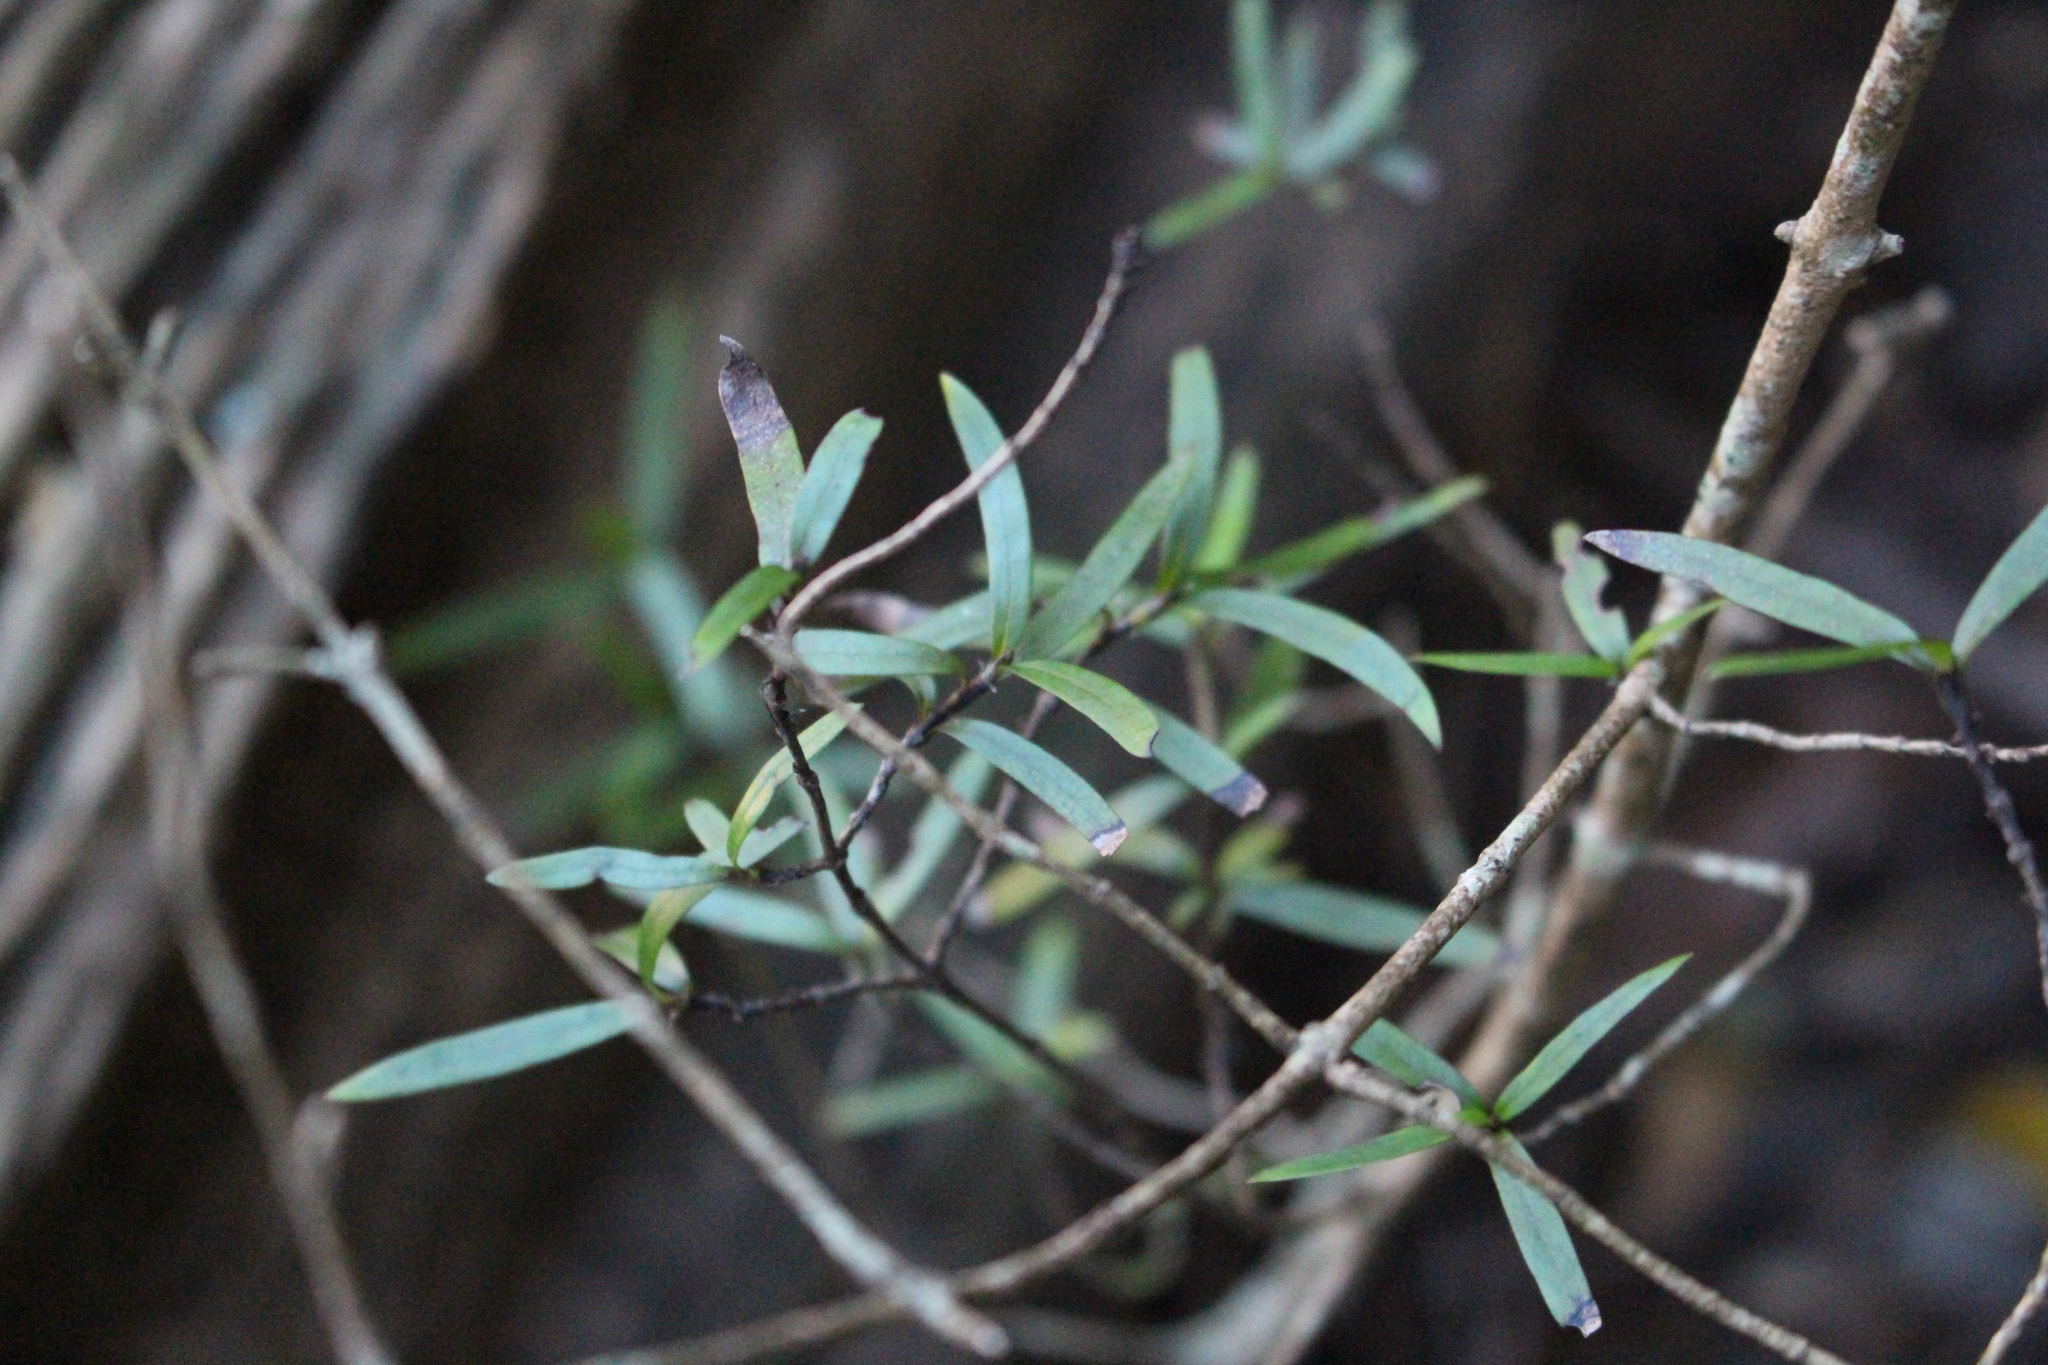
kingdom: Plantae
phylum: Tracheophyta
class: Magnoliopsida
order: Gentianales
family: Rubiaceae
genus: Coprosma
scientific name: Coprosma linariifolia
